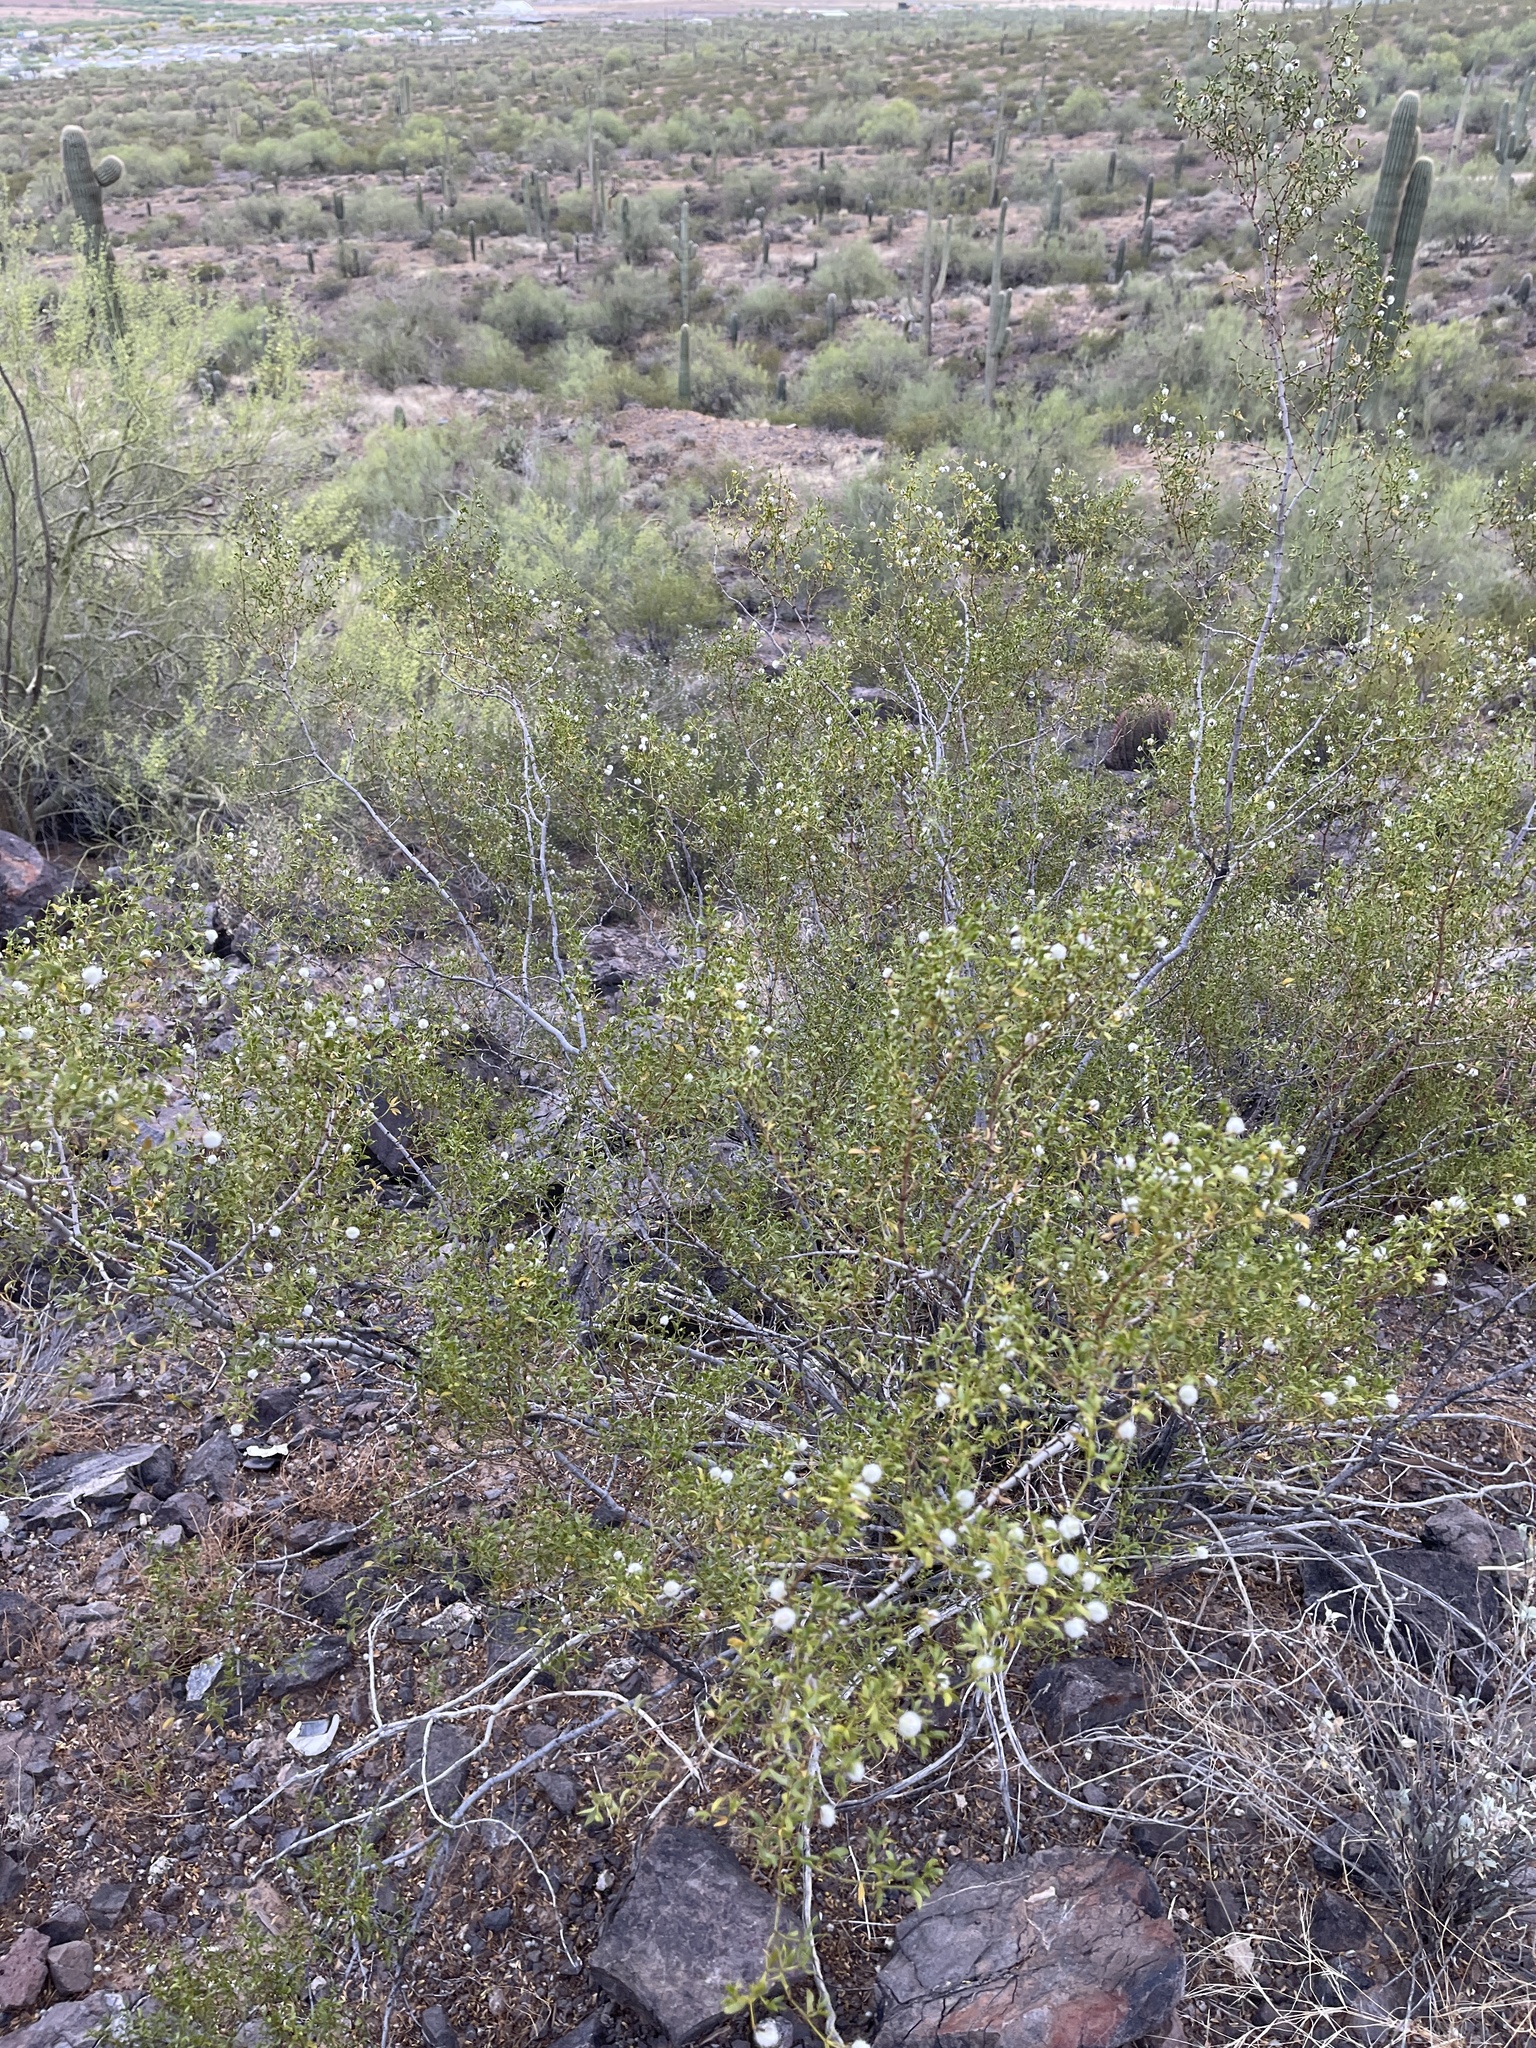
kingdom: Plantae
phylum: Tracheophyta
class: Magnoliopsida
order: Zygophyllales
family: Zygophyllaceae
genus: Larrea
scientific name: Larrea tridentata
